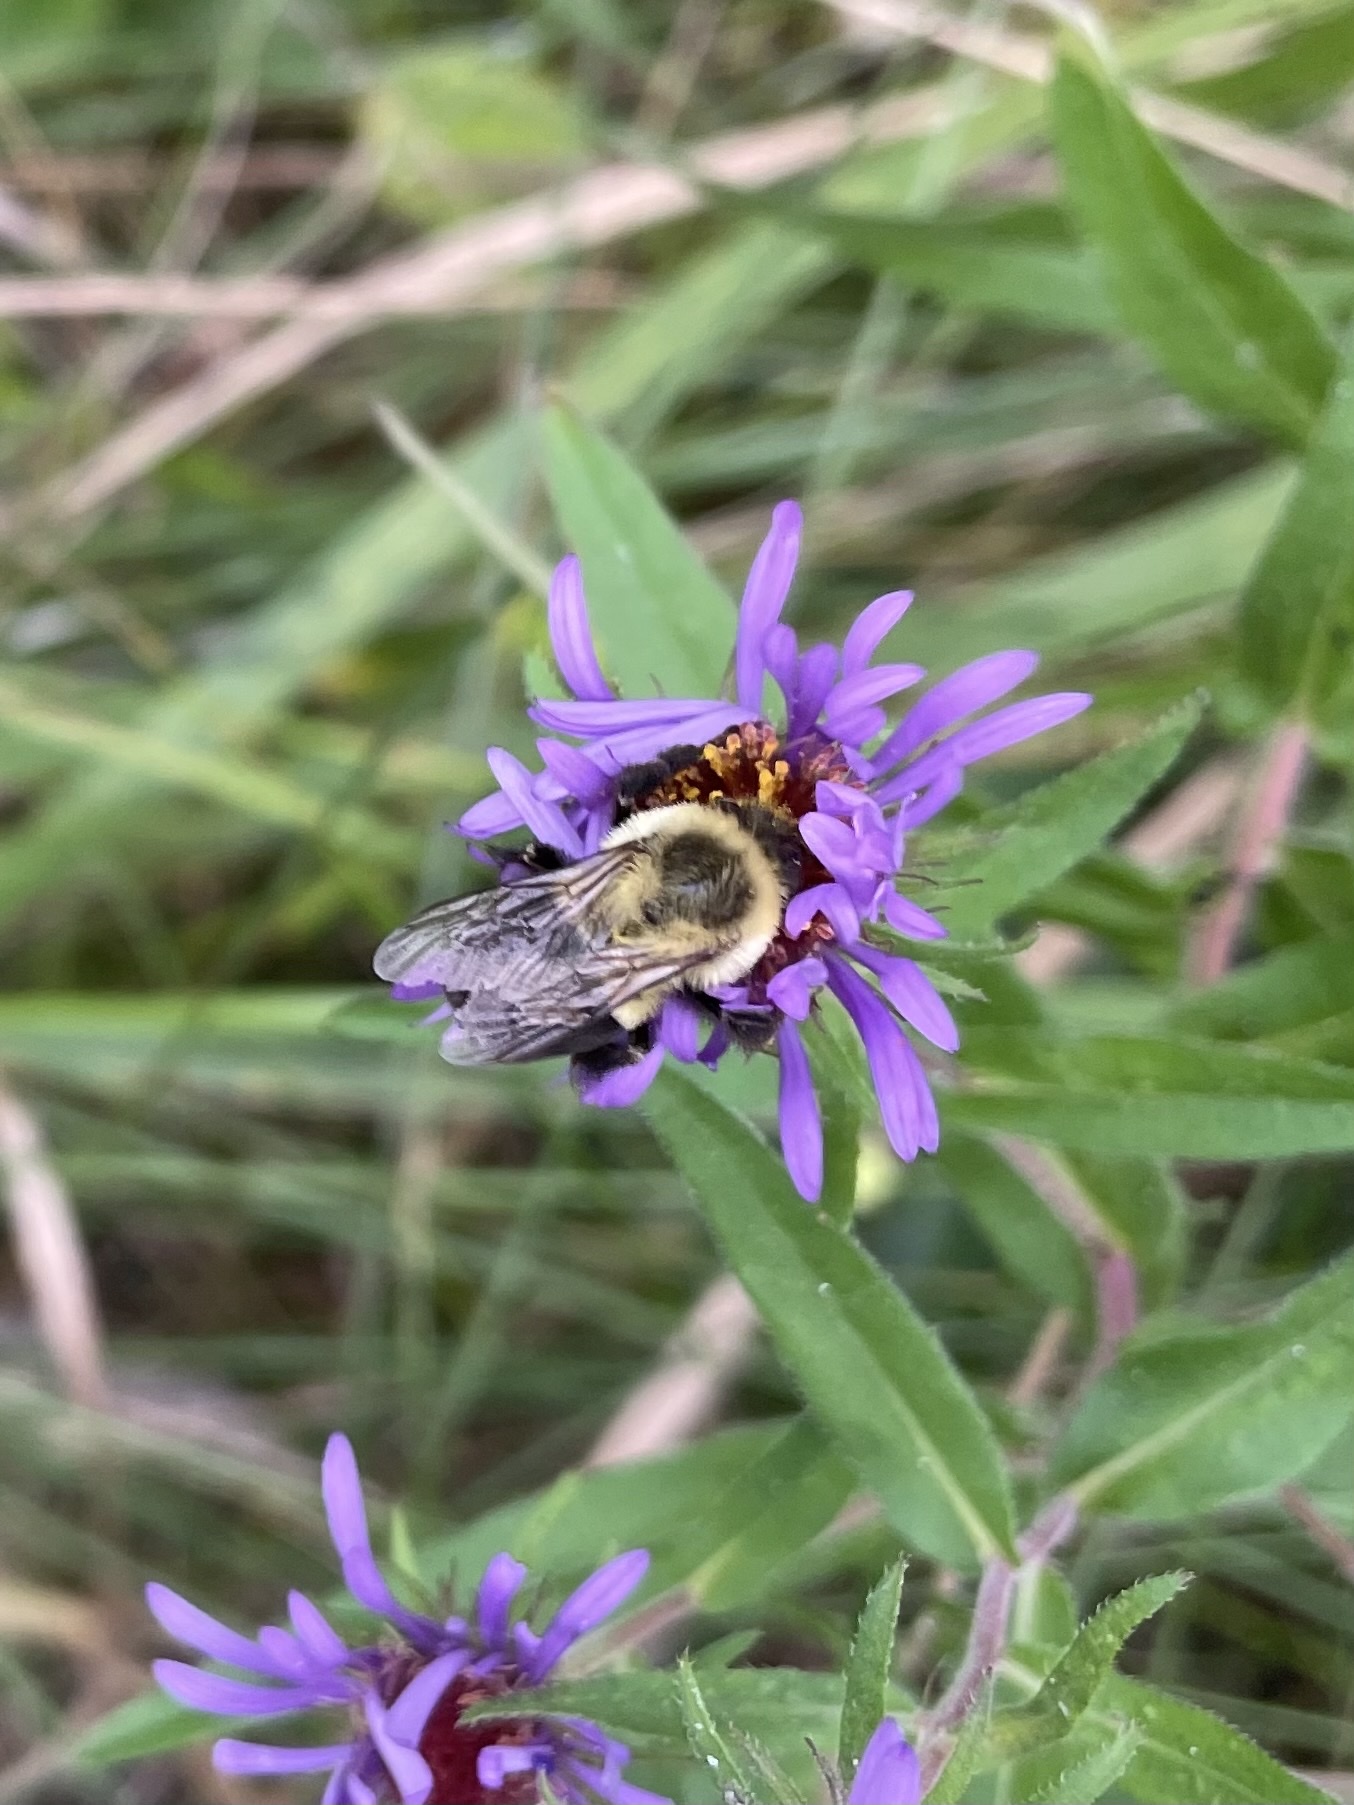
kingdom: Animalia
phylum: Arthropoda
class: Insecta
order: Hymenoptera
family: Apidae
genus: Bombus
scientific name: Bombus impatiens
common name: Common eastern bumble bee
